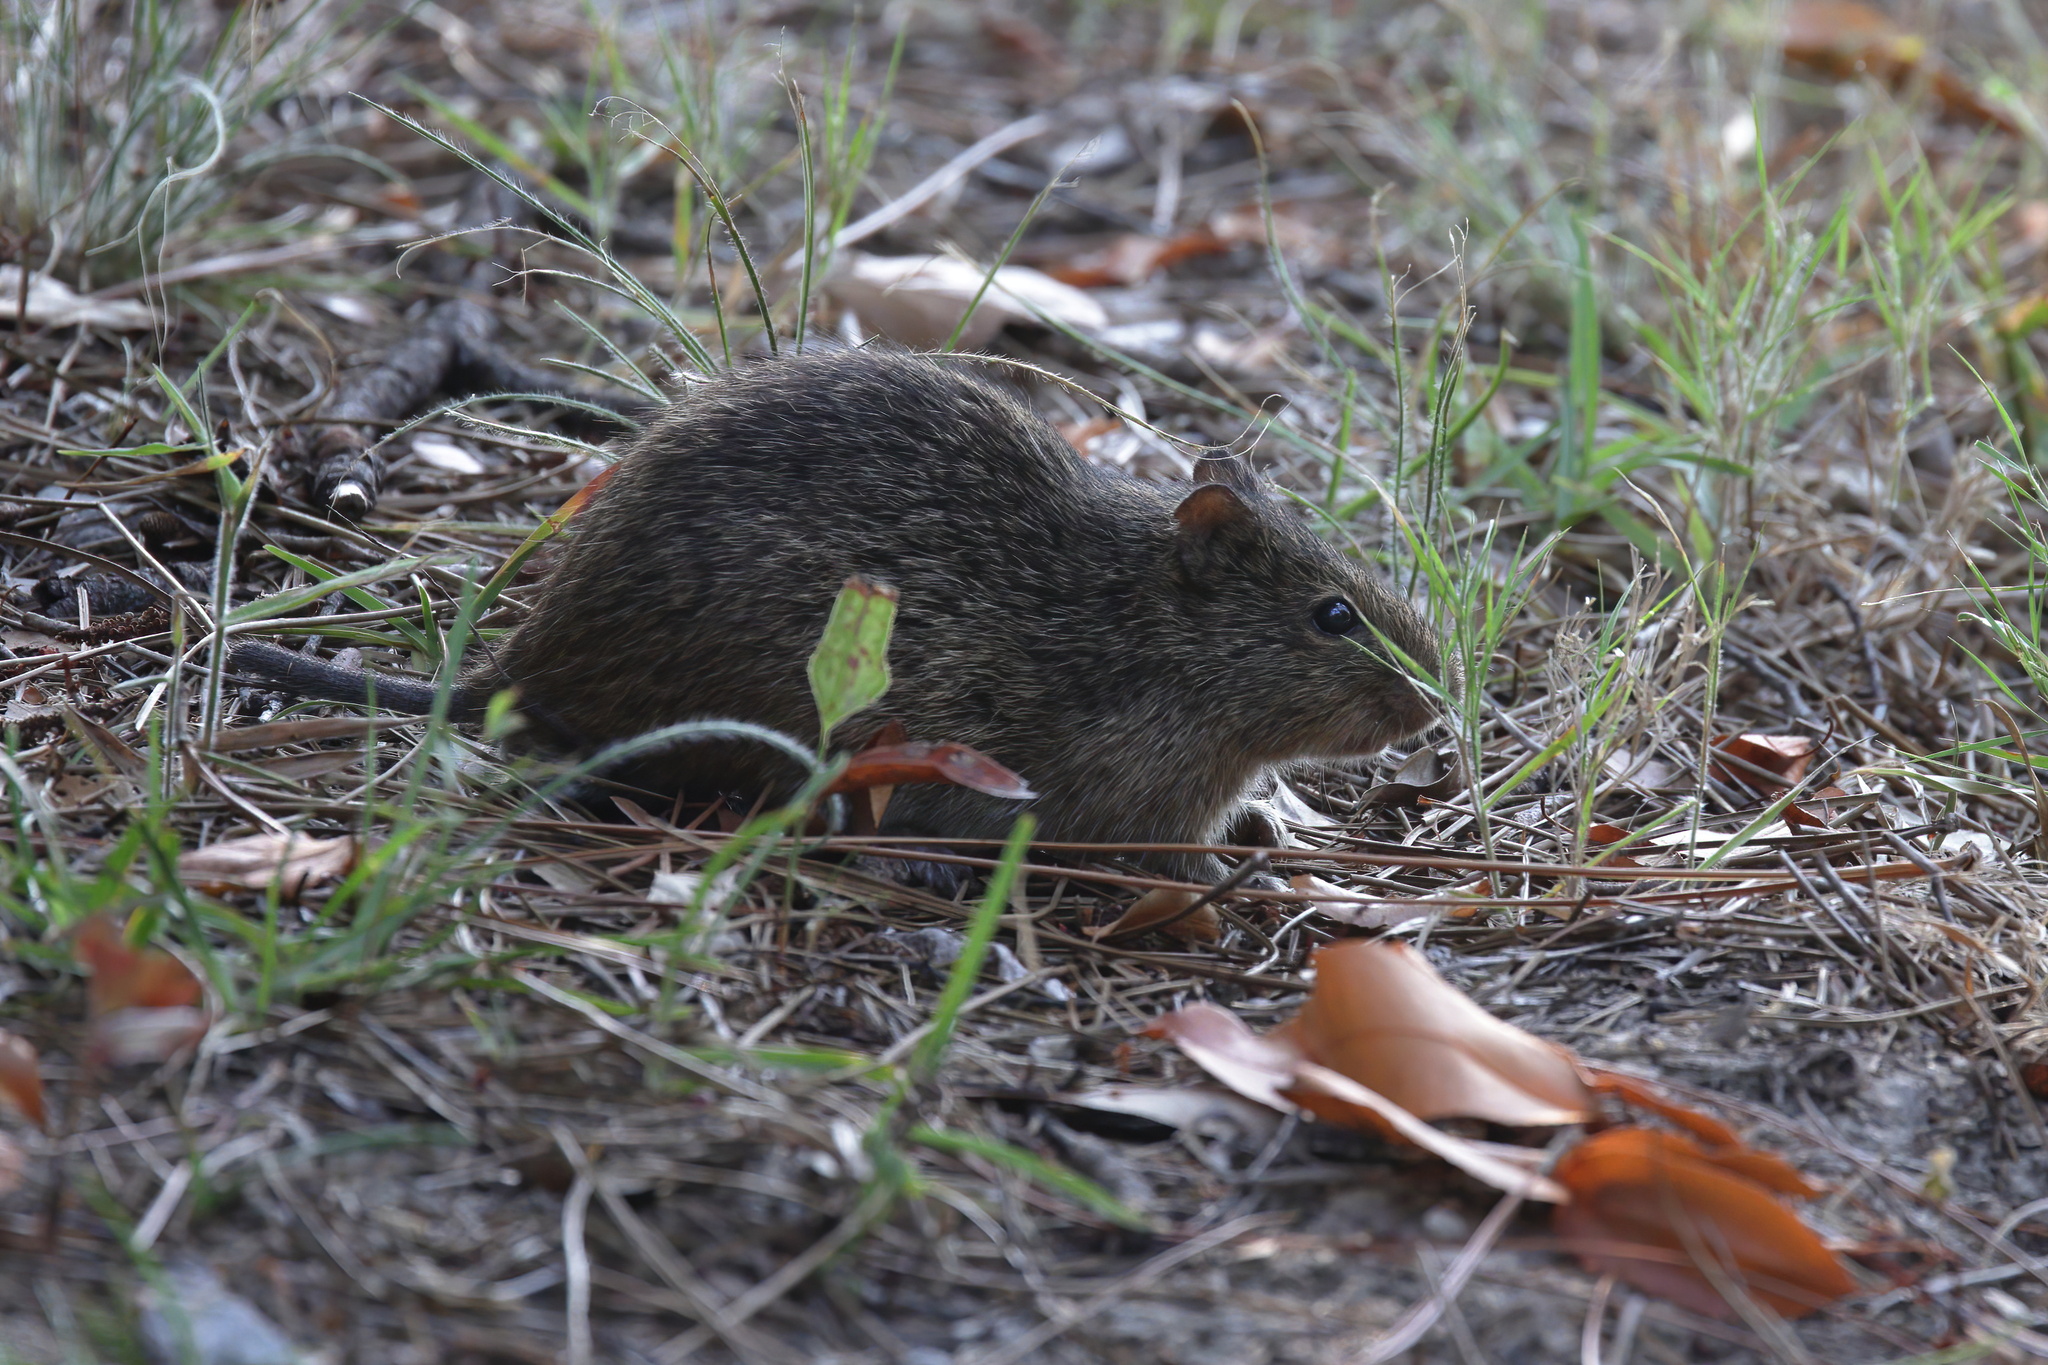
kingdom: Animalia
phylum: Chordata
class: Mammalia
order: Rodentia
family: Cricetidae
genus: Sigmodon
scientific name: Sigmodon hispidus
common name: Hispid cotton rat
